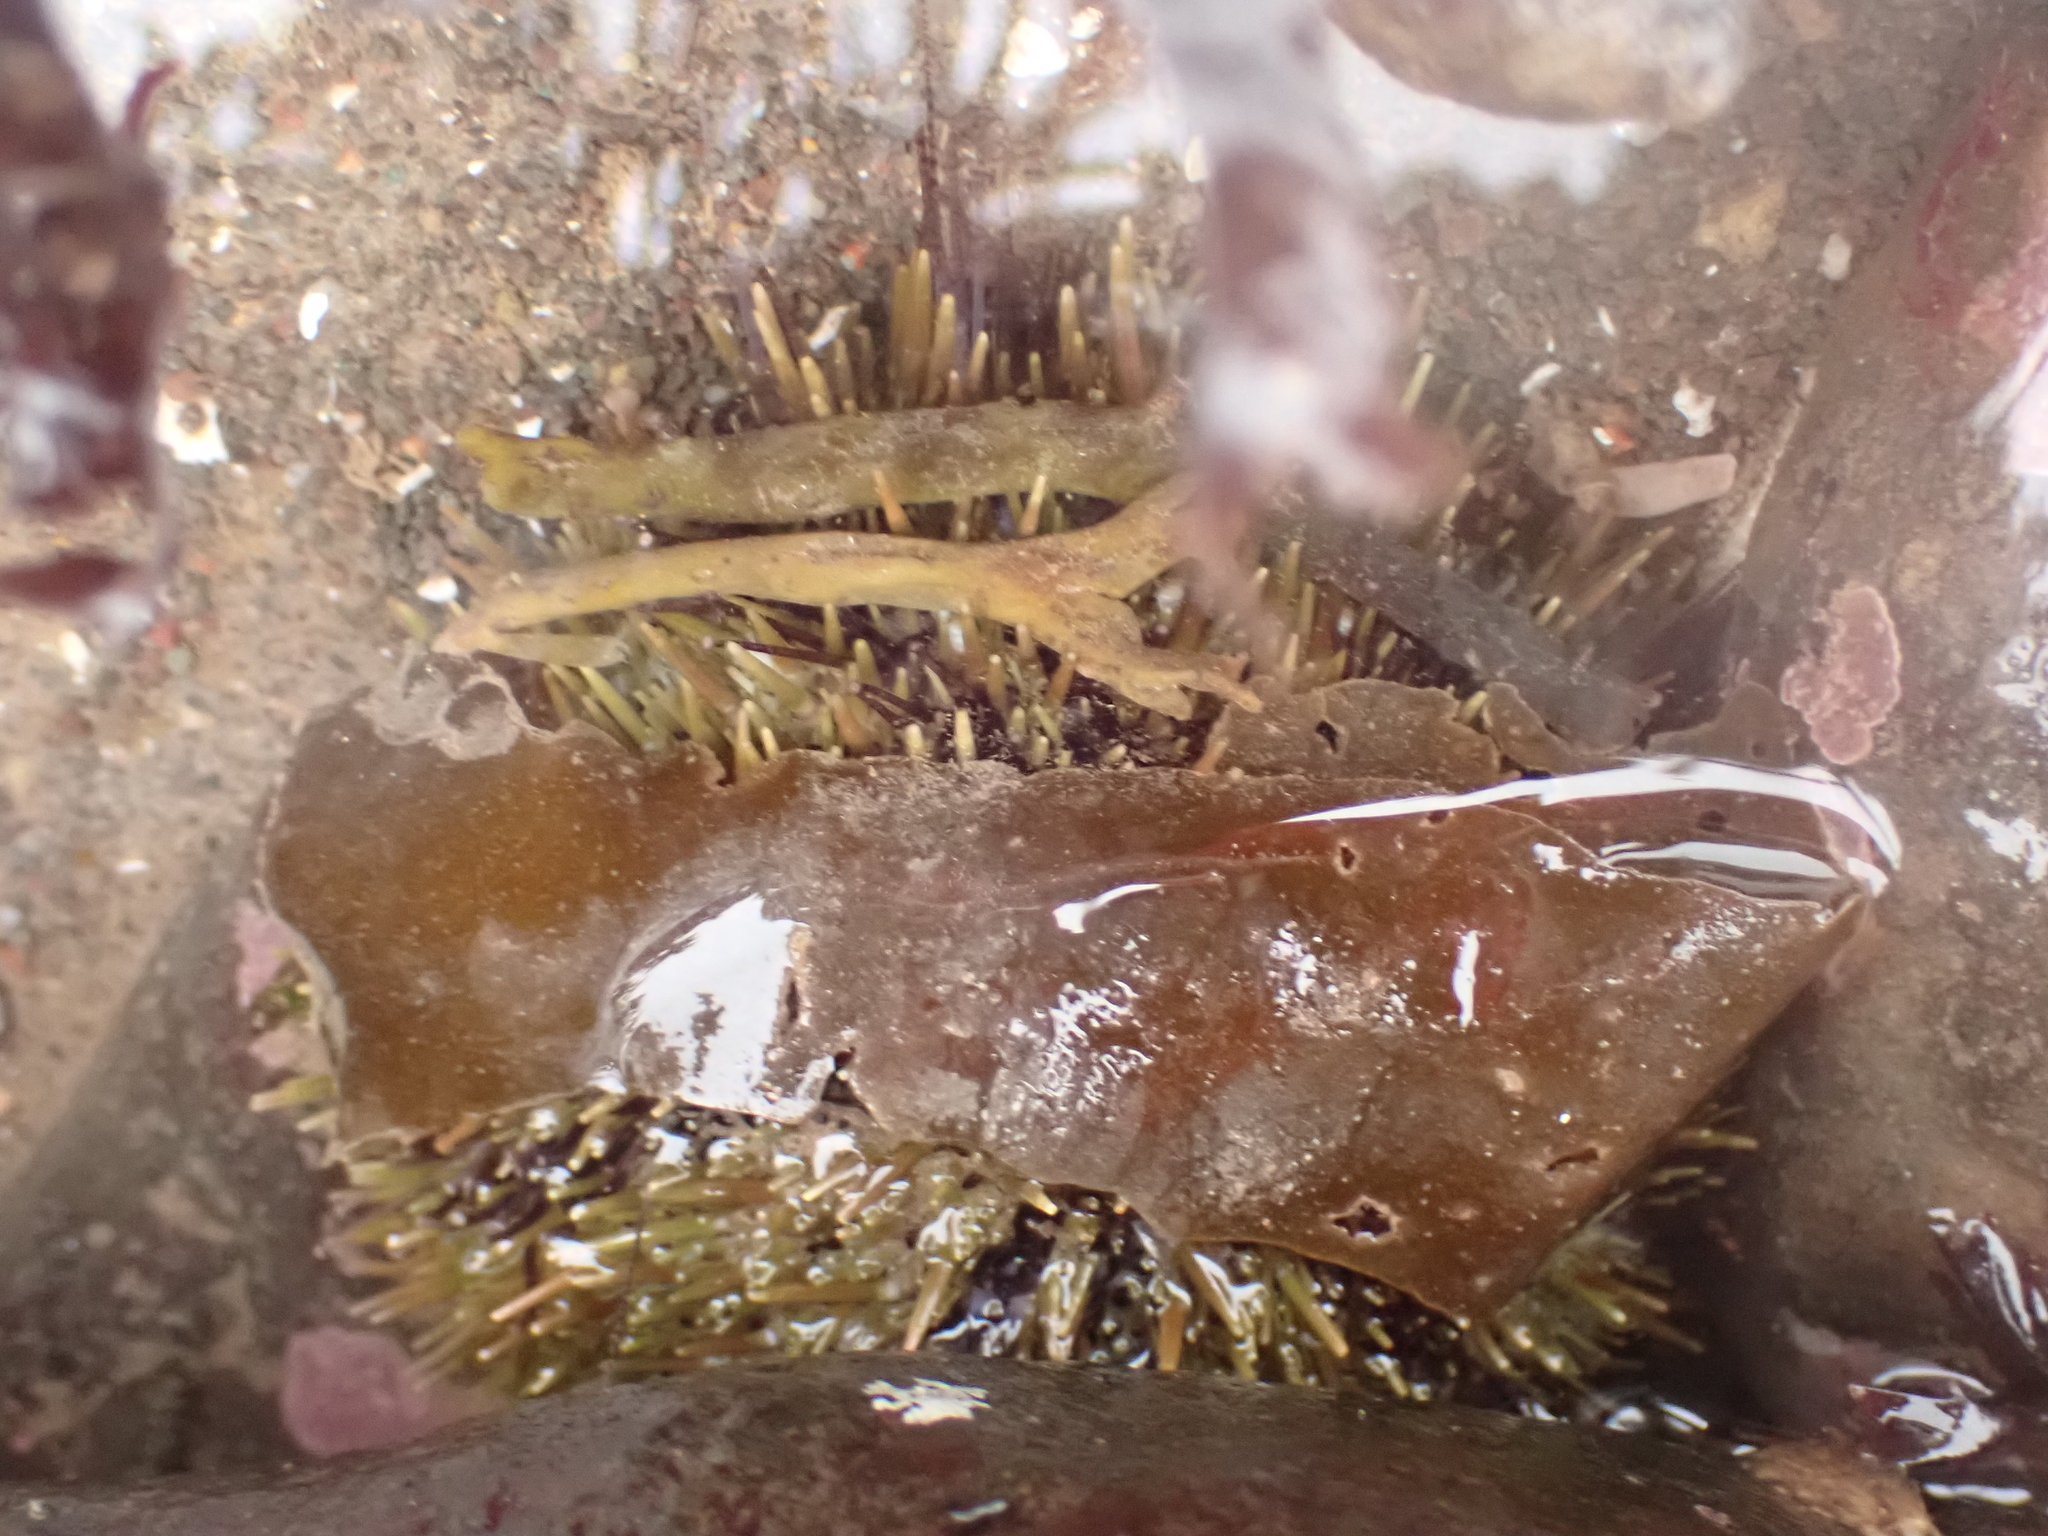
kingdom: Animalia
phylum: Echinodermata
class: Echinoidea
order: Camarodonta
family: Strongylocentrotidae
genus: Strongylocentrotus
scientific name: Strongylocentrotus droebachiensis
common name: Northern sea urchin
